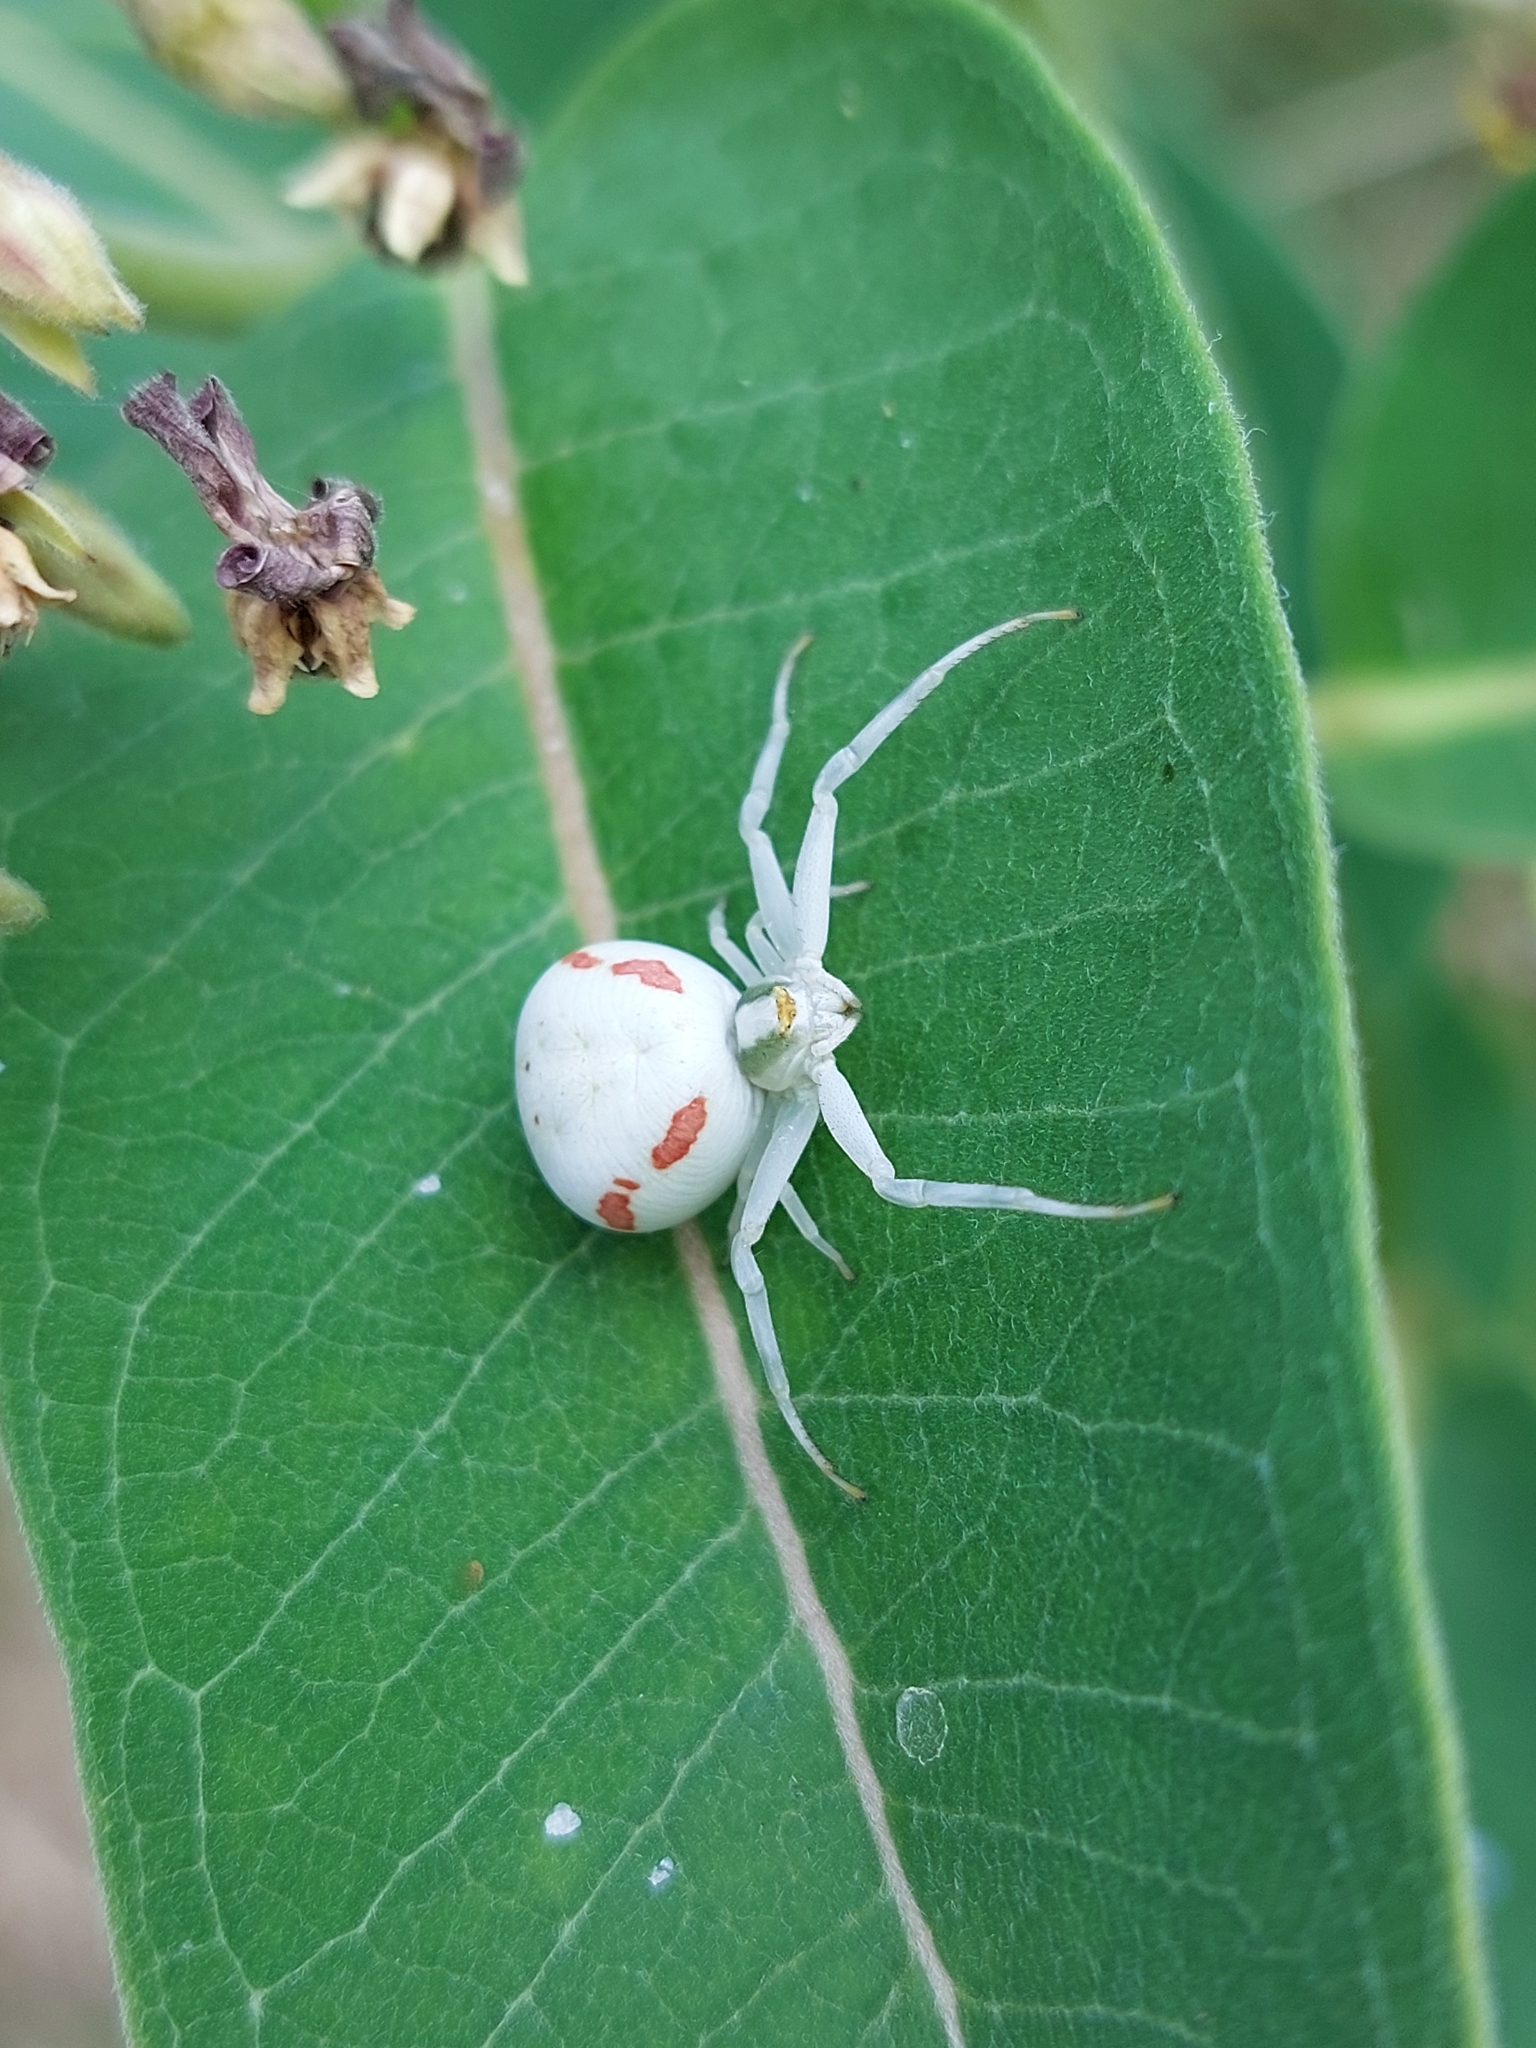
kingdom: Animalia
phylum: Arthropoda
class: Arachnida
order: Araneae
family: Thomisidae
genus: Misumena
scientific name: Misumena vatia
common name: Goldenrod crab spider
